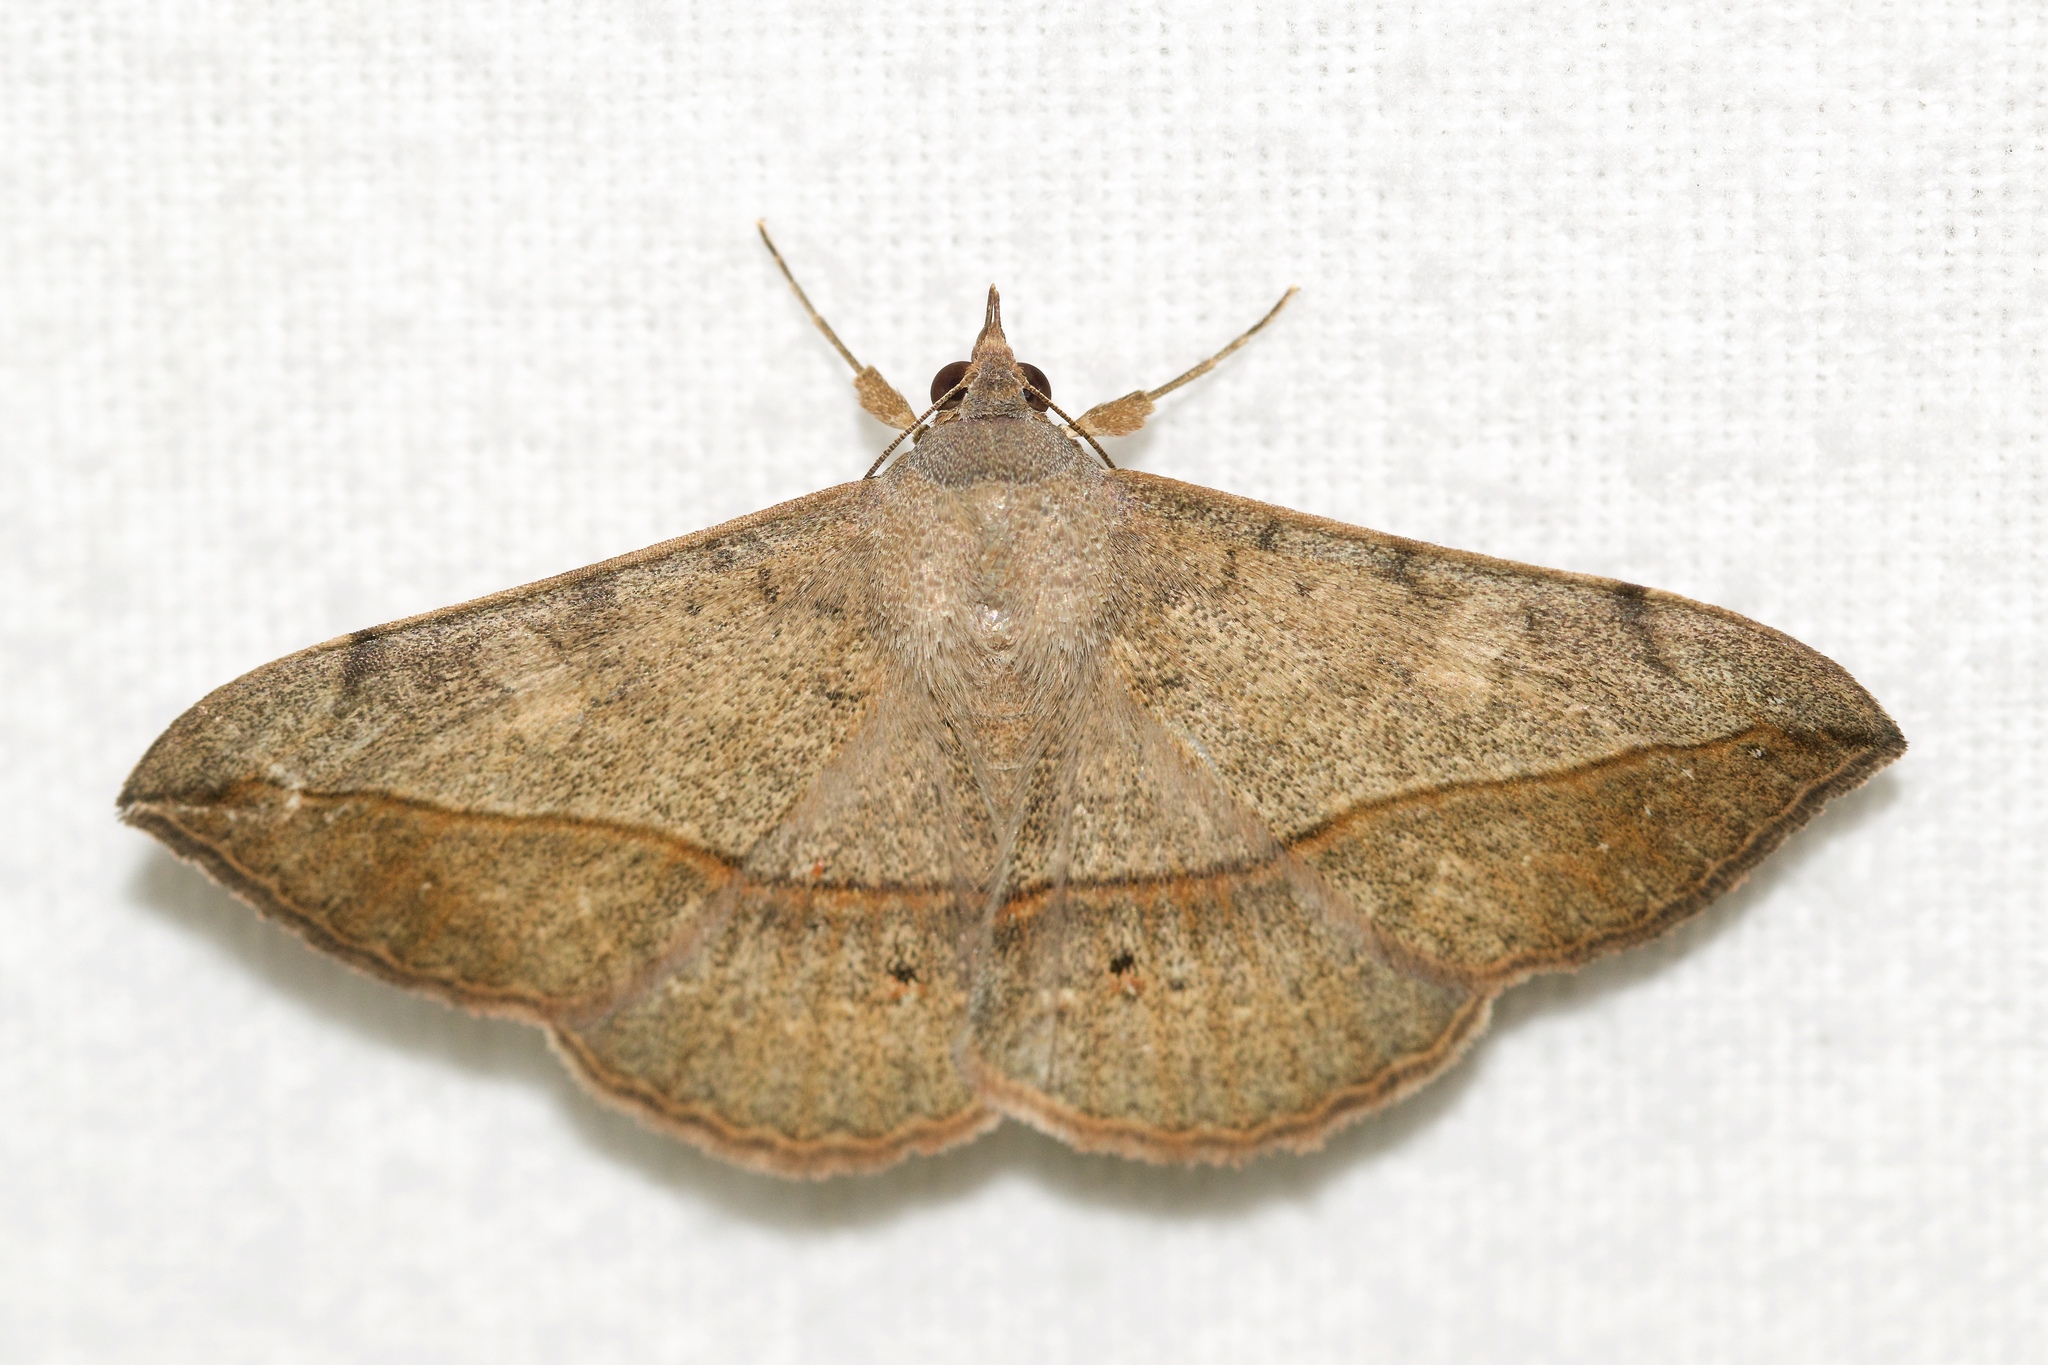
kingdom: Animalia
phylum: Arthropoda
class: Insecta
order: Lepidoptera
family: Erebidae
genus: Anticarsia
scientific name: Anticarsia gemmatalis
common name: Cutworm moth
